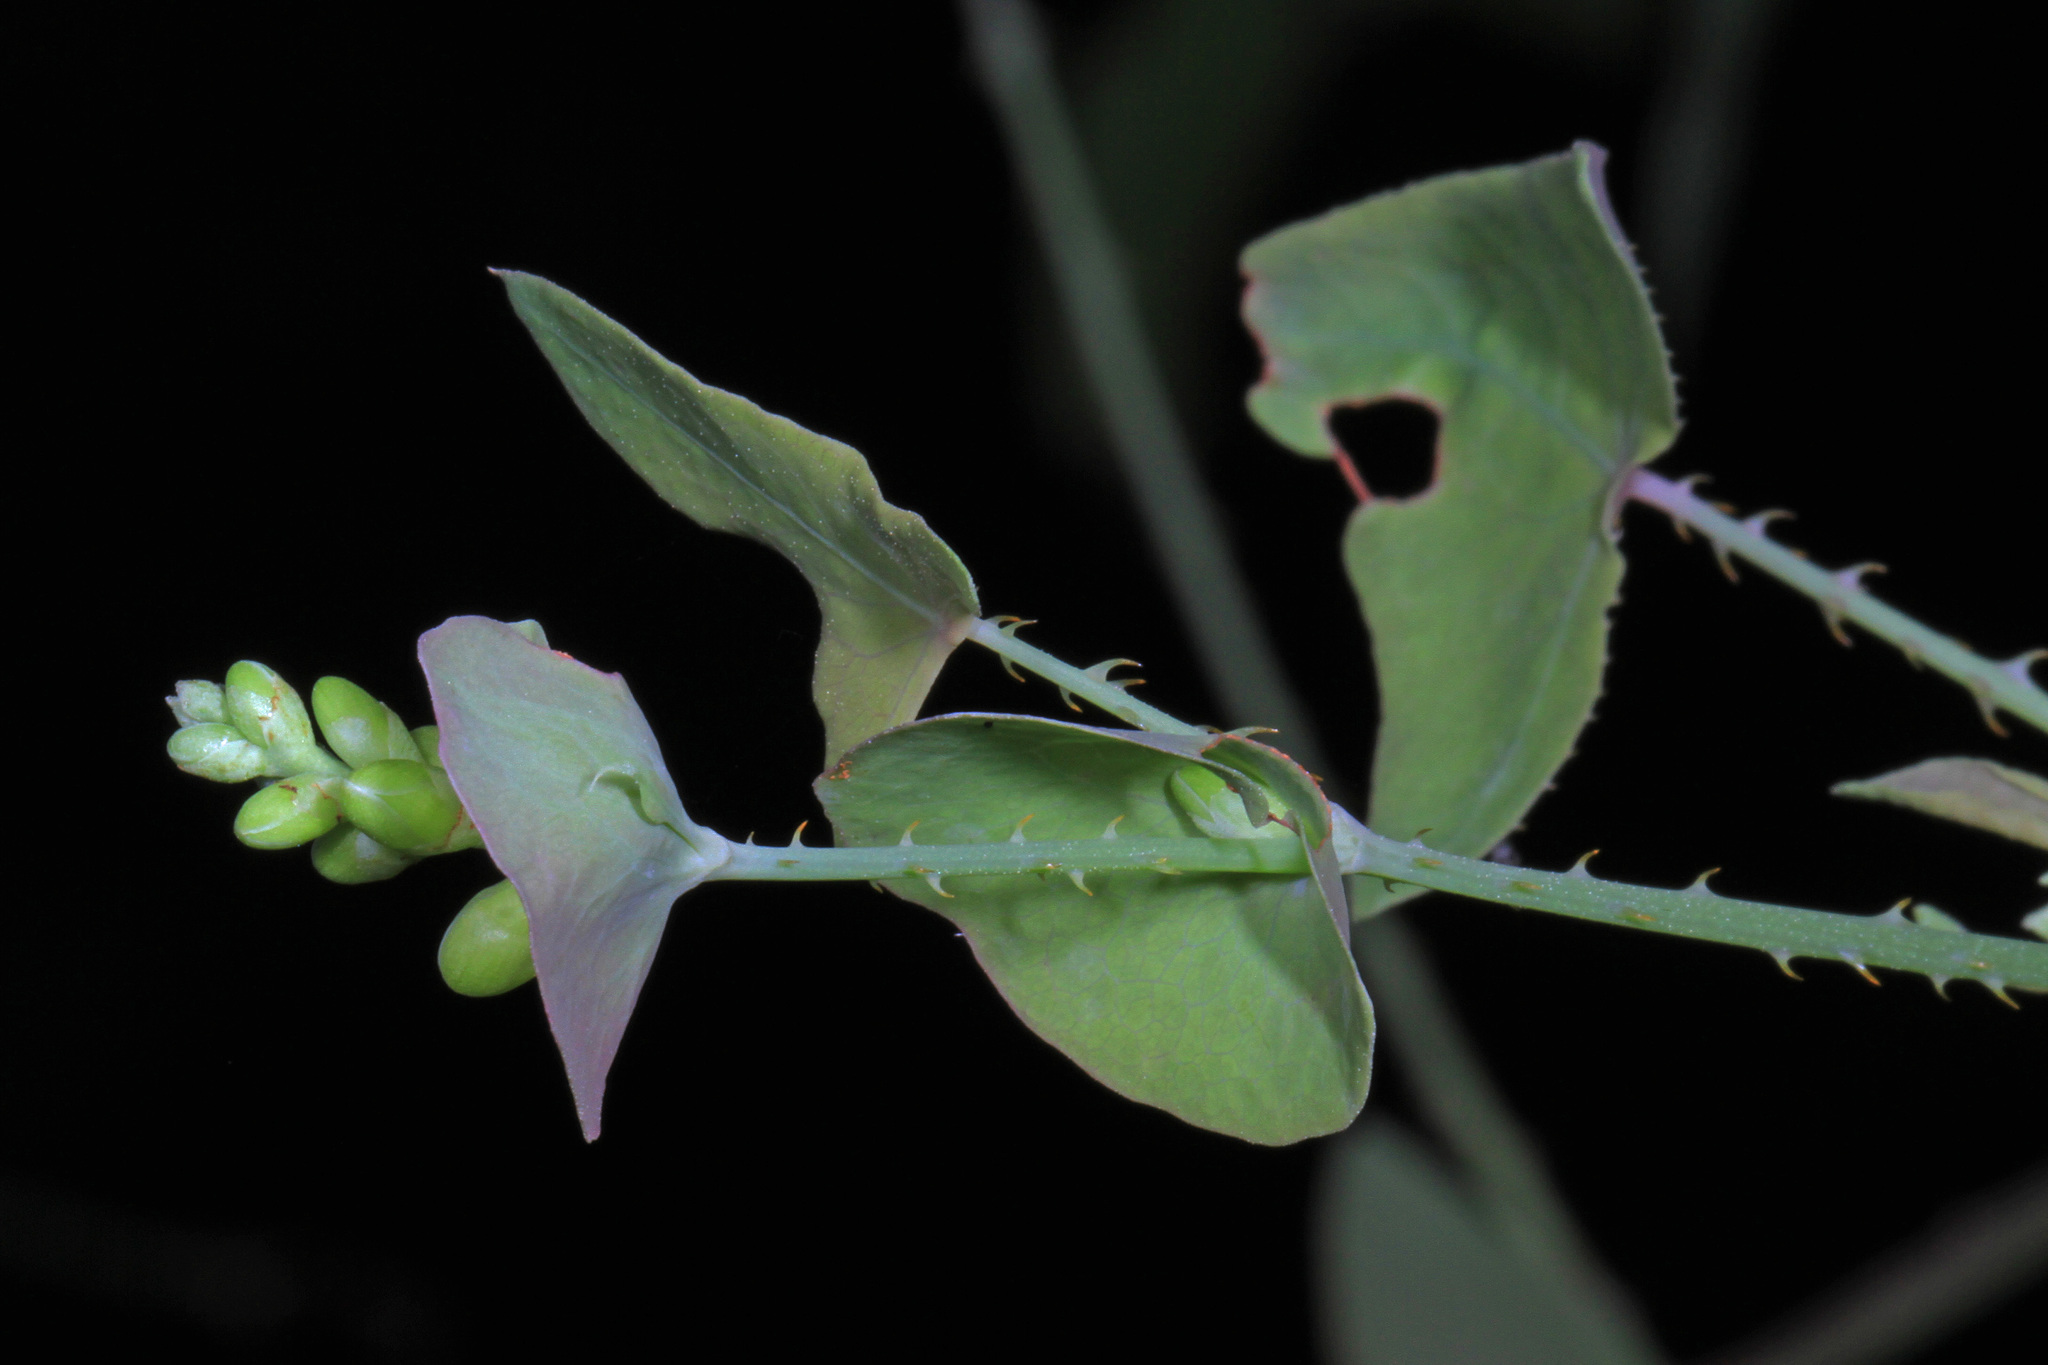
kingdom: Plantae
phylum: Tracheophyta
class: Magnoliopsida
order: Caryophyllales
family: Polygonaceae
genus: Persicaria
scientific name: Persicaria perfoliata
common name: Asiatic tearthumb
